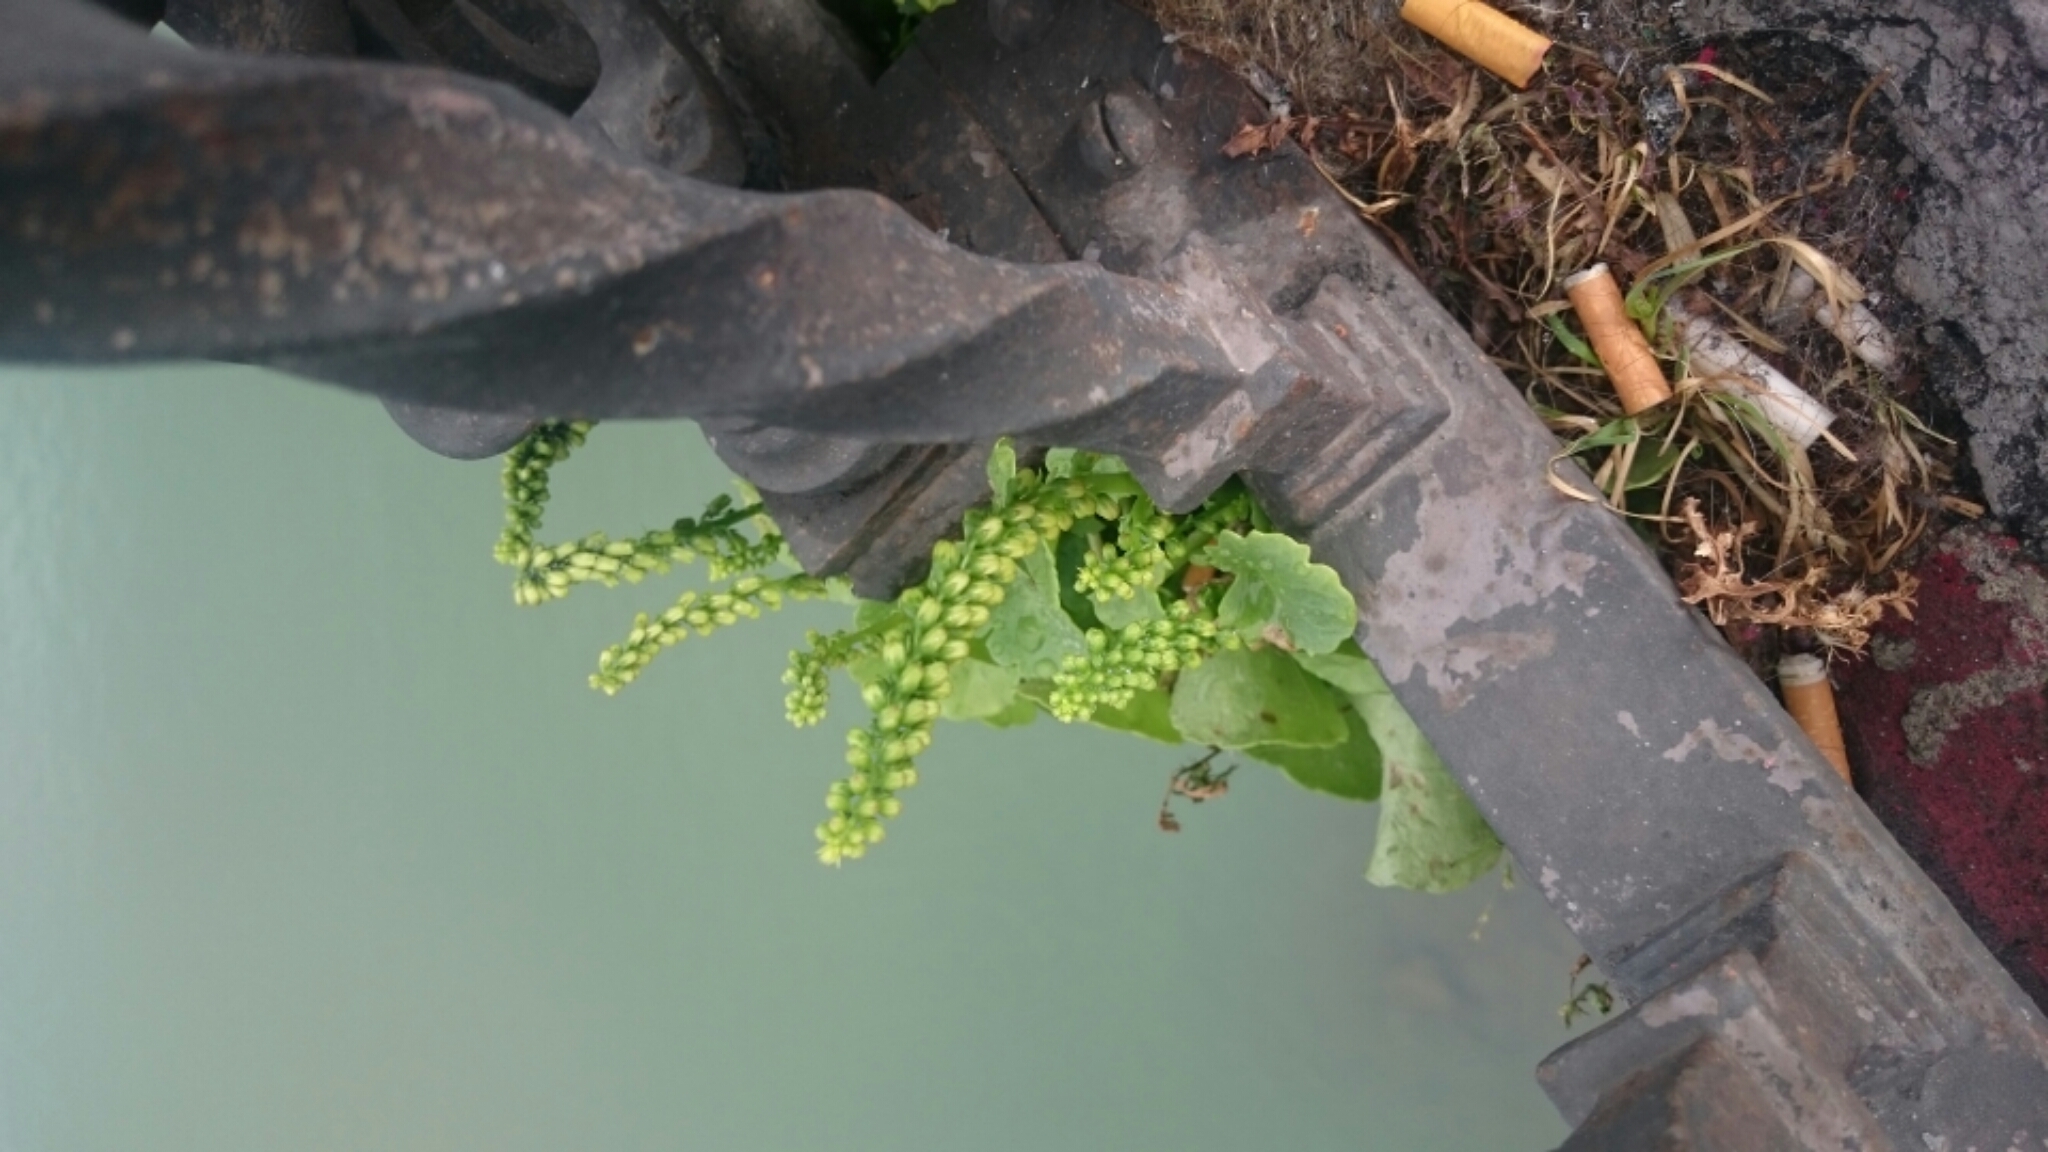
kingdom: Plantae
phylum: Tracheophyta
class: Magnoliopsida
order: Saxifragales
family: Crassulaceae
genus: Umbilicus
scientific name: Umbilicus rupestris
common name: Navelwort
